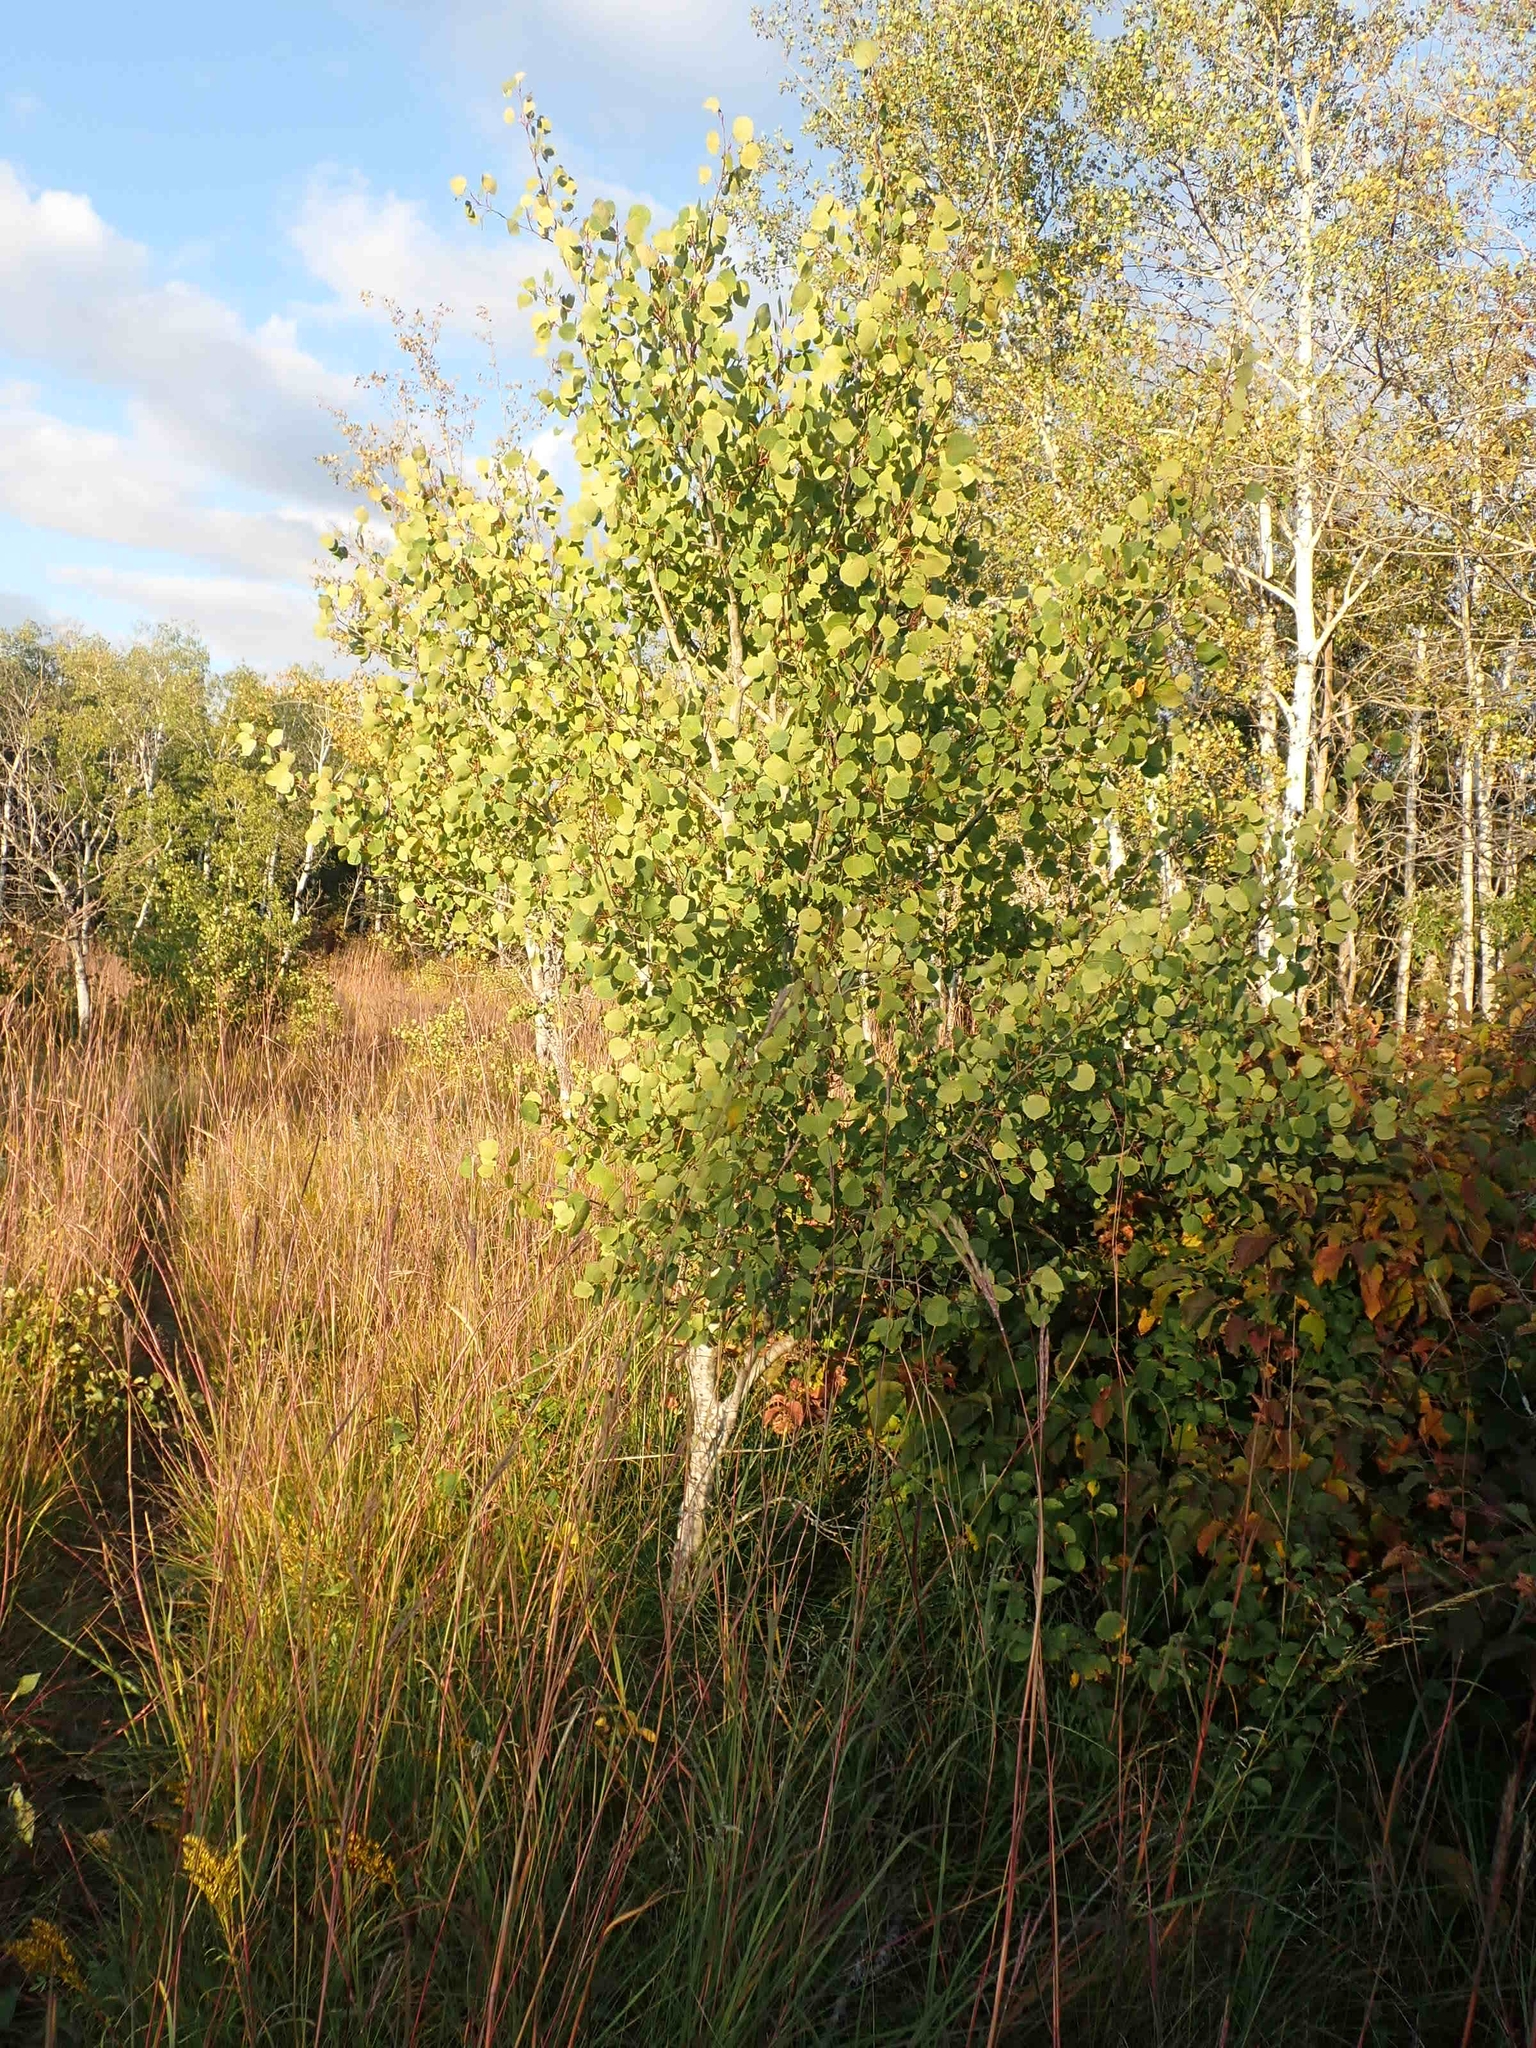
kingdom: Plantae
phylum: Tracheophyta
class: Magnoliopsida
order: Malpighiales
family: Salicaceae
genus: Populus
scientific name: Populus tremuloides
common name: Quaking aspen
